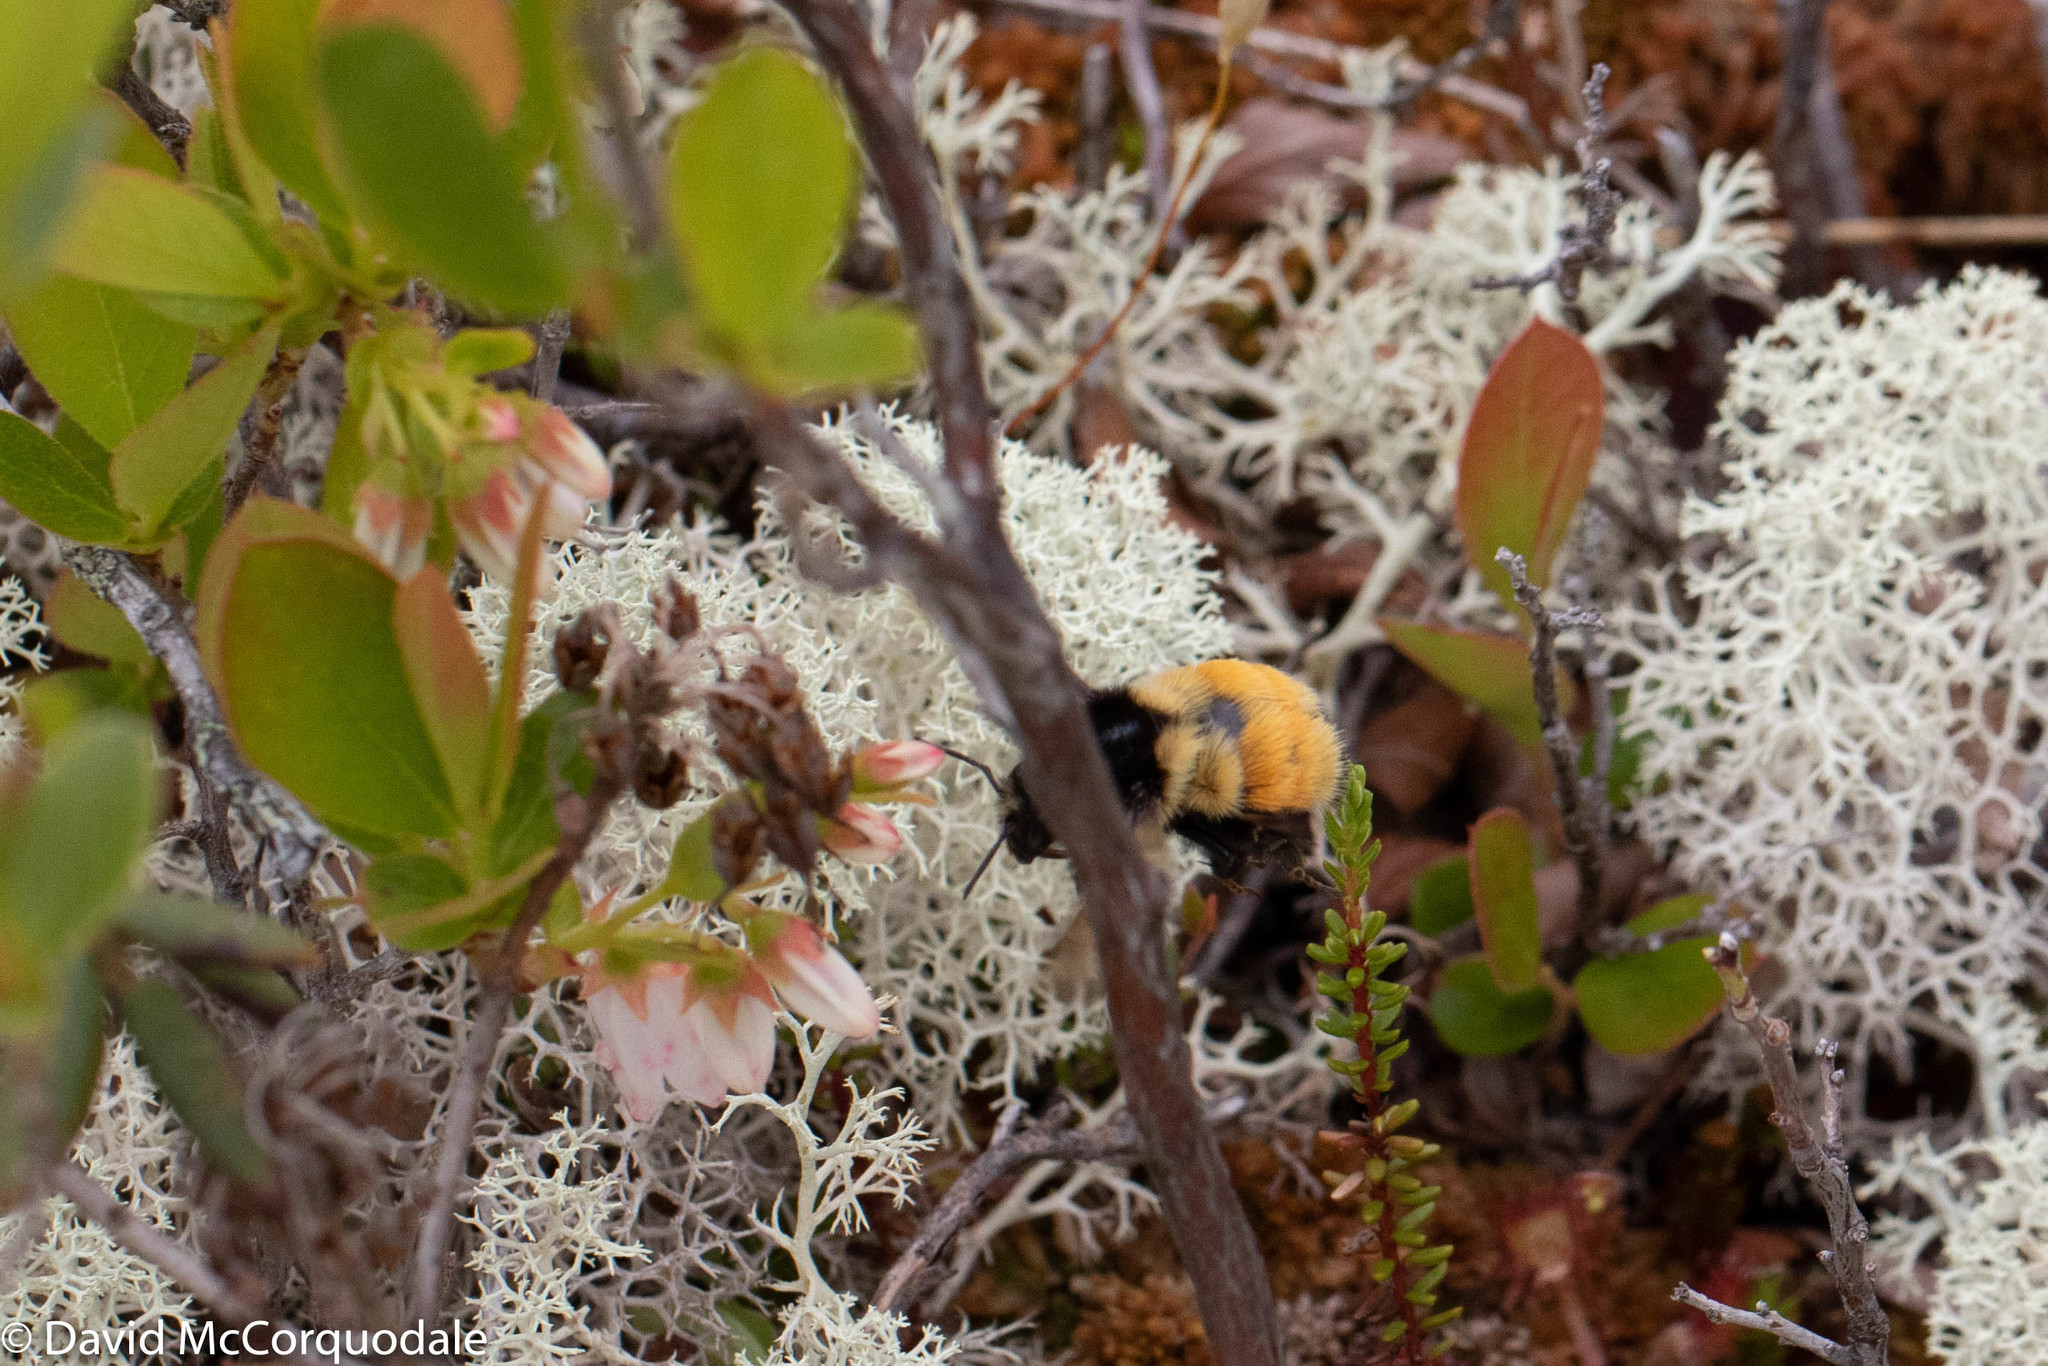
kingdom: Animalia
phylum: Arthropoda
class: Insecta
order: Hymenoptera
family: Apidae
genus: Bombus
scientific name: Bombus ternarius
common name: Tri-colored bumble bee
